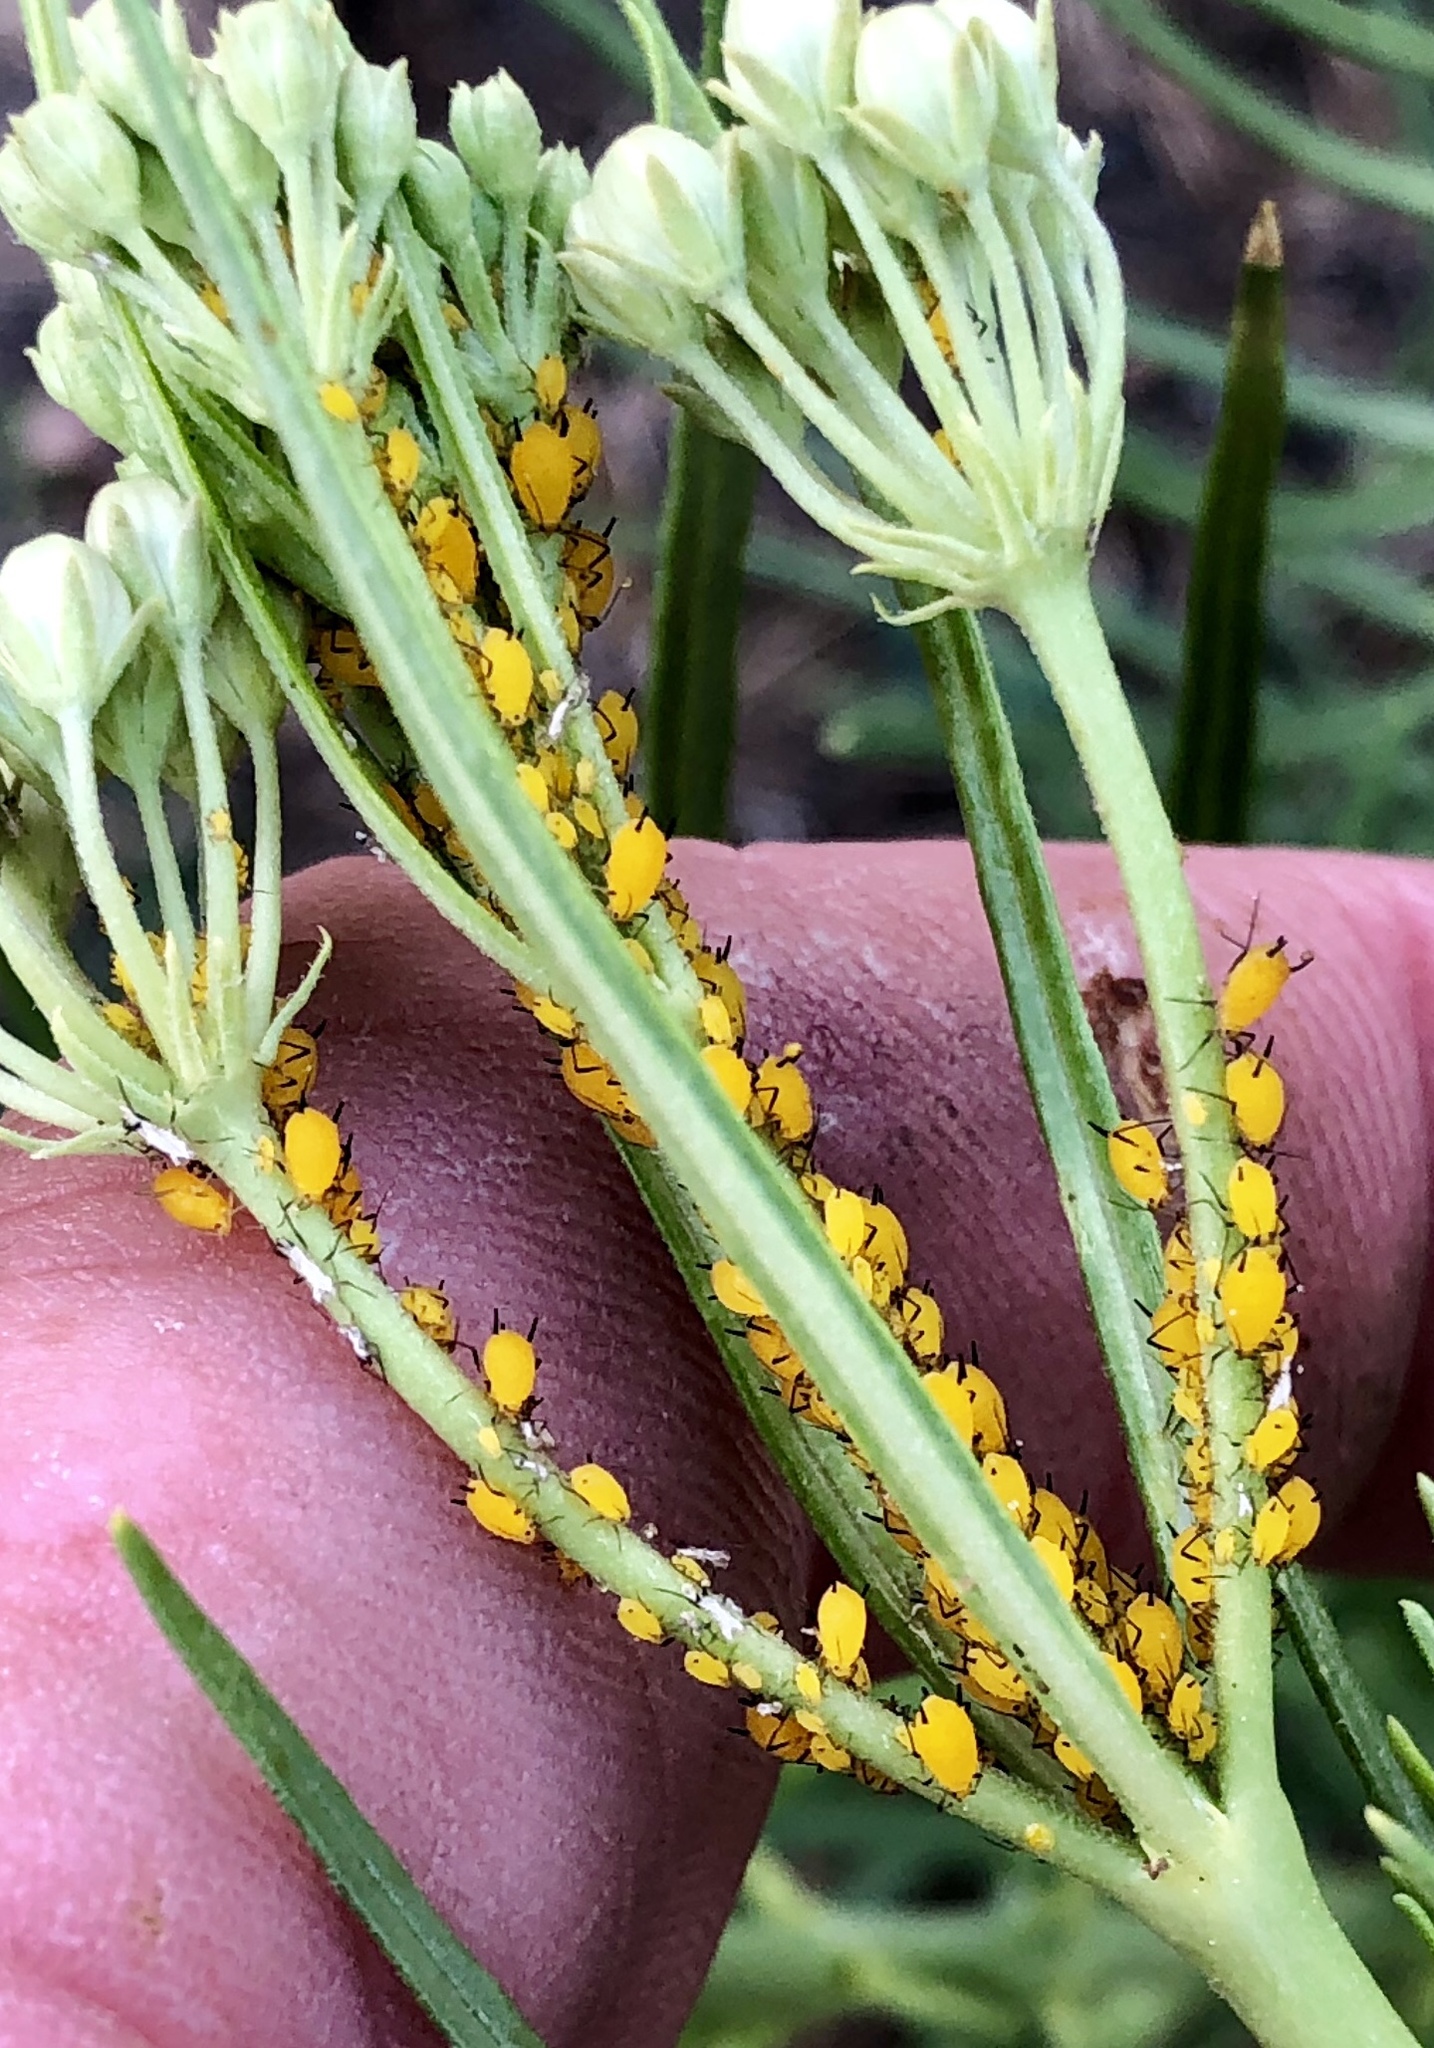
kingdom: Animalia
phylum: Arthropoda
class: Insecta
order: Hemiptera
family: Aphididae
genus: Aphis
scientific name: Aphis nerii
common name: Oleander aphid
